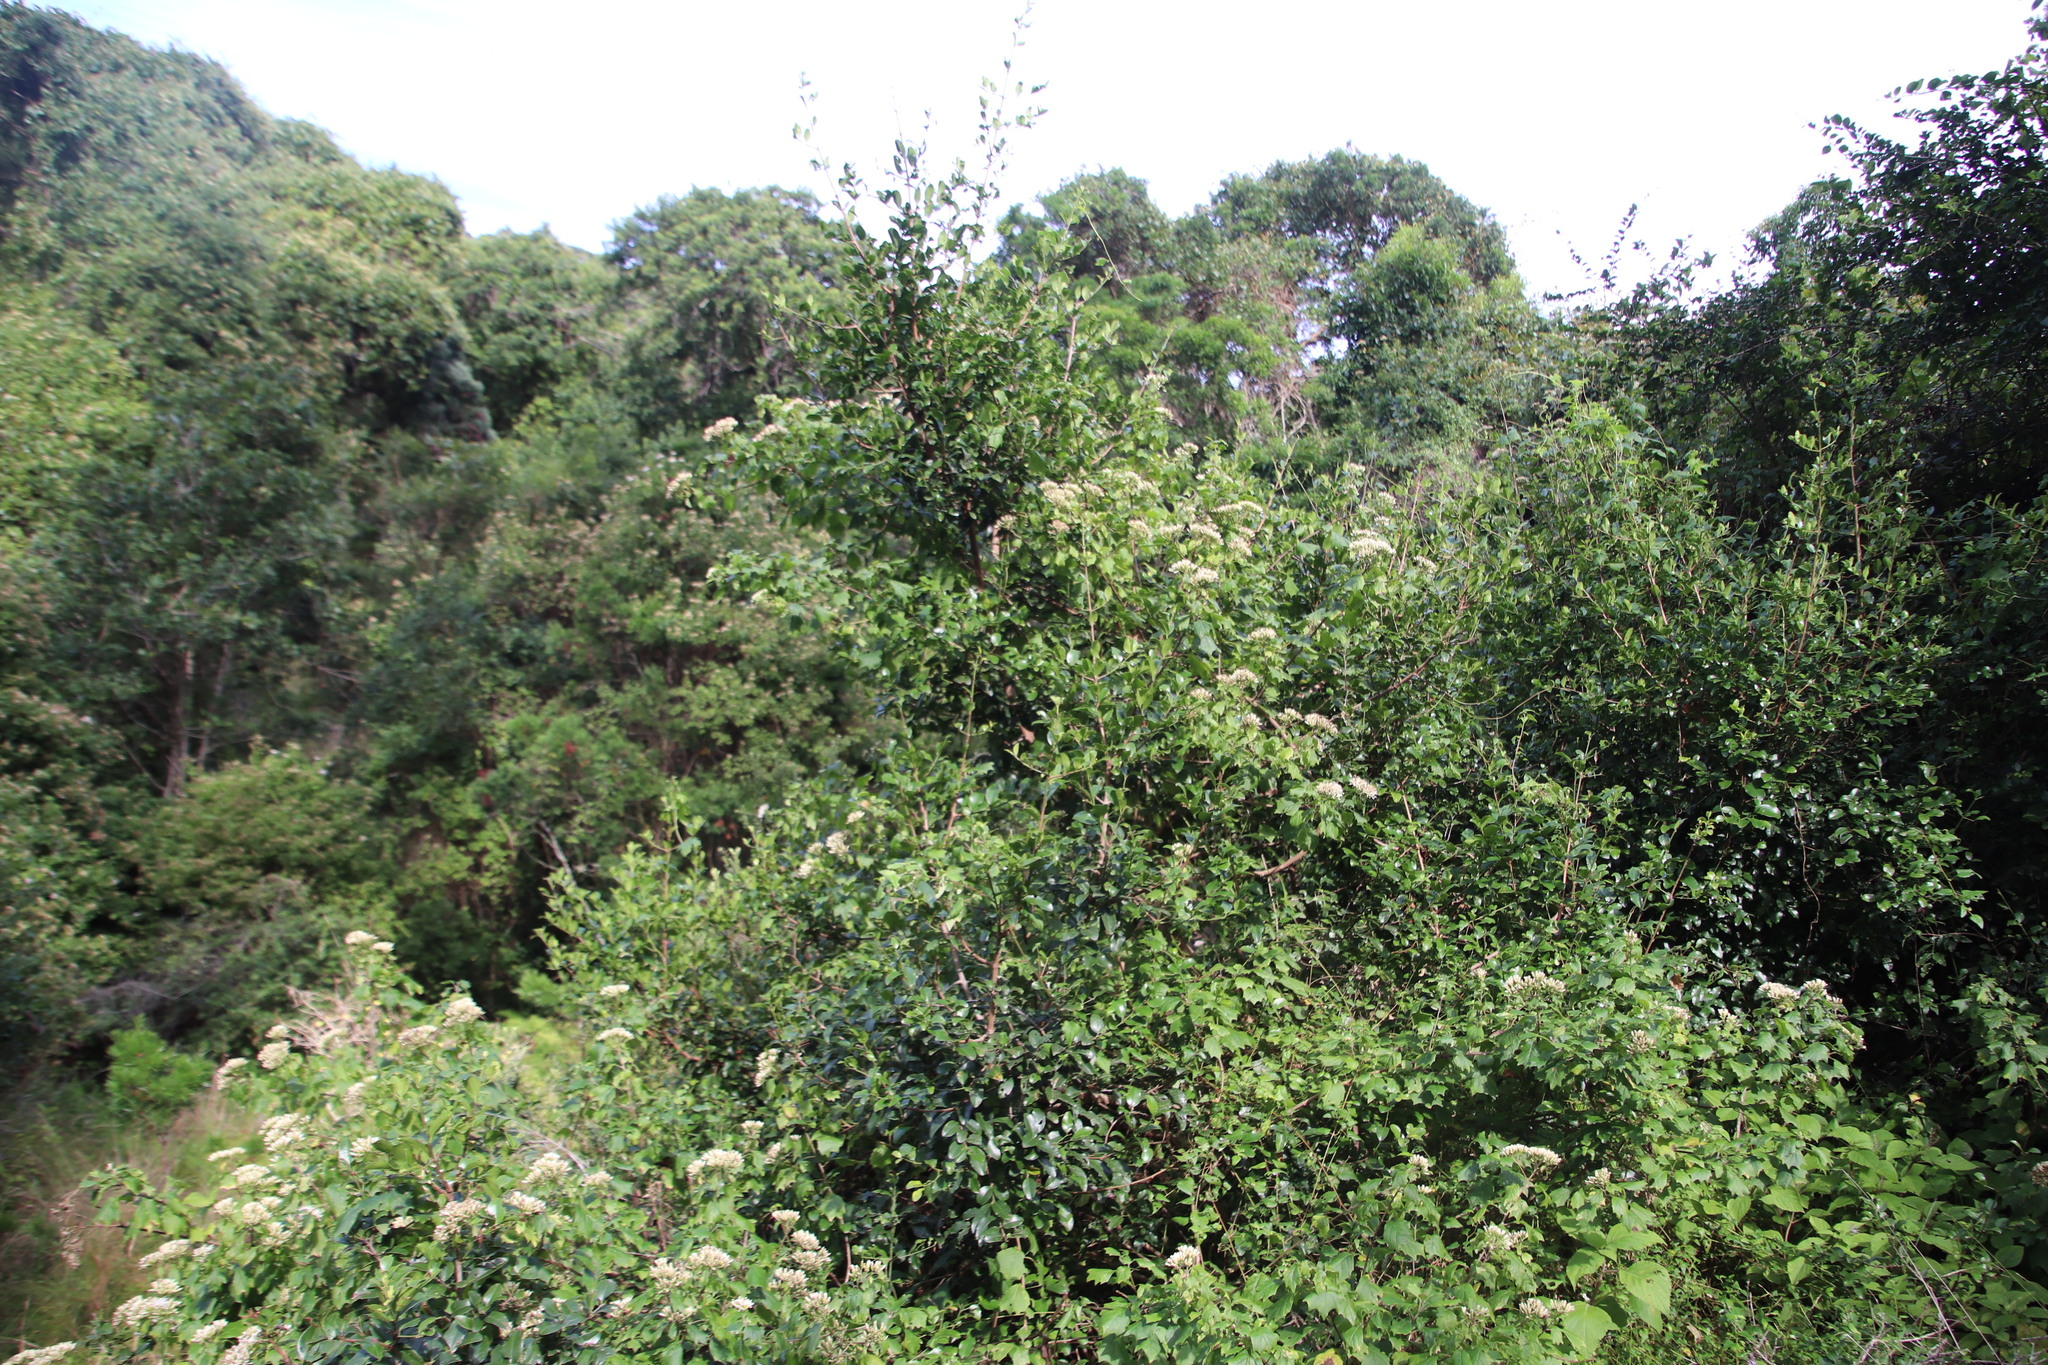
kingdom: Plantae
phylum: Tracheophyta
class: Magnoliopsida
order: Asterales
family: Asteraceae
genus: Gymnanthemum
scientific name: Gymnanthemum capense
